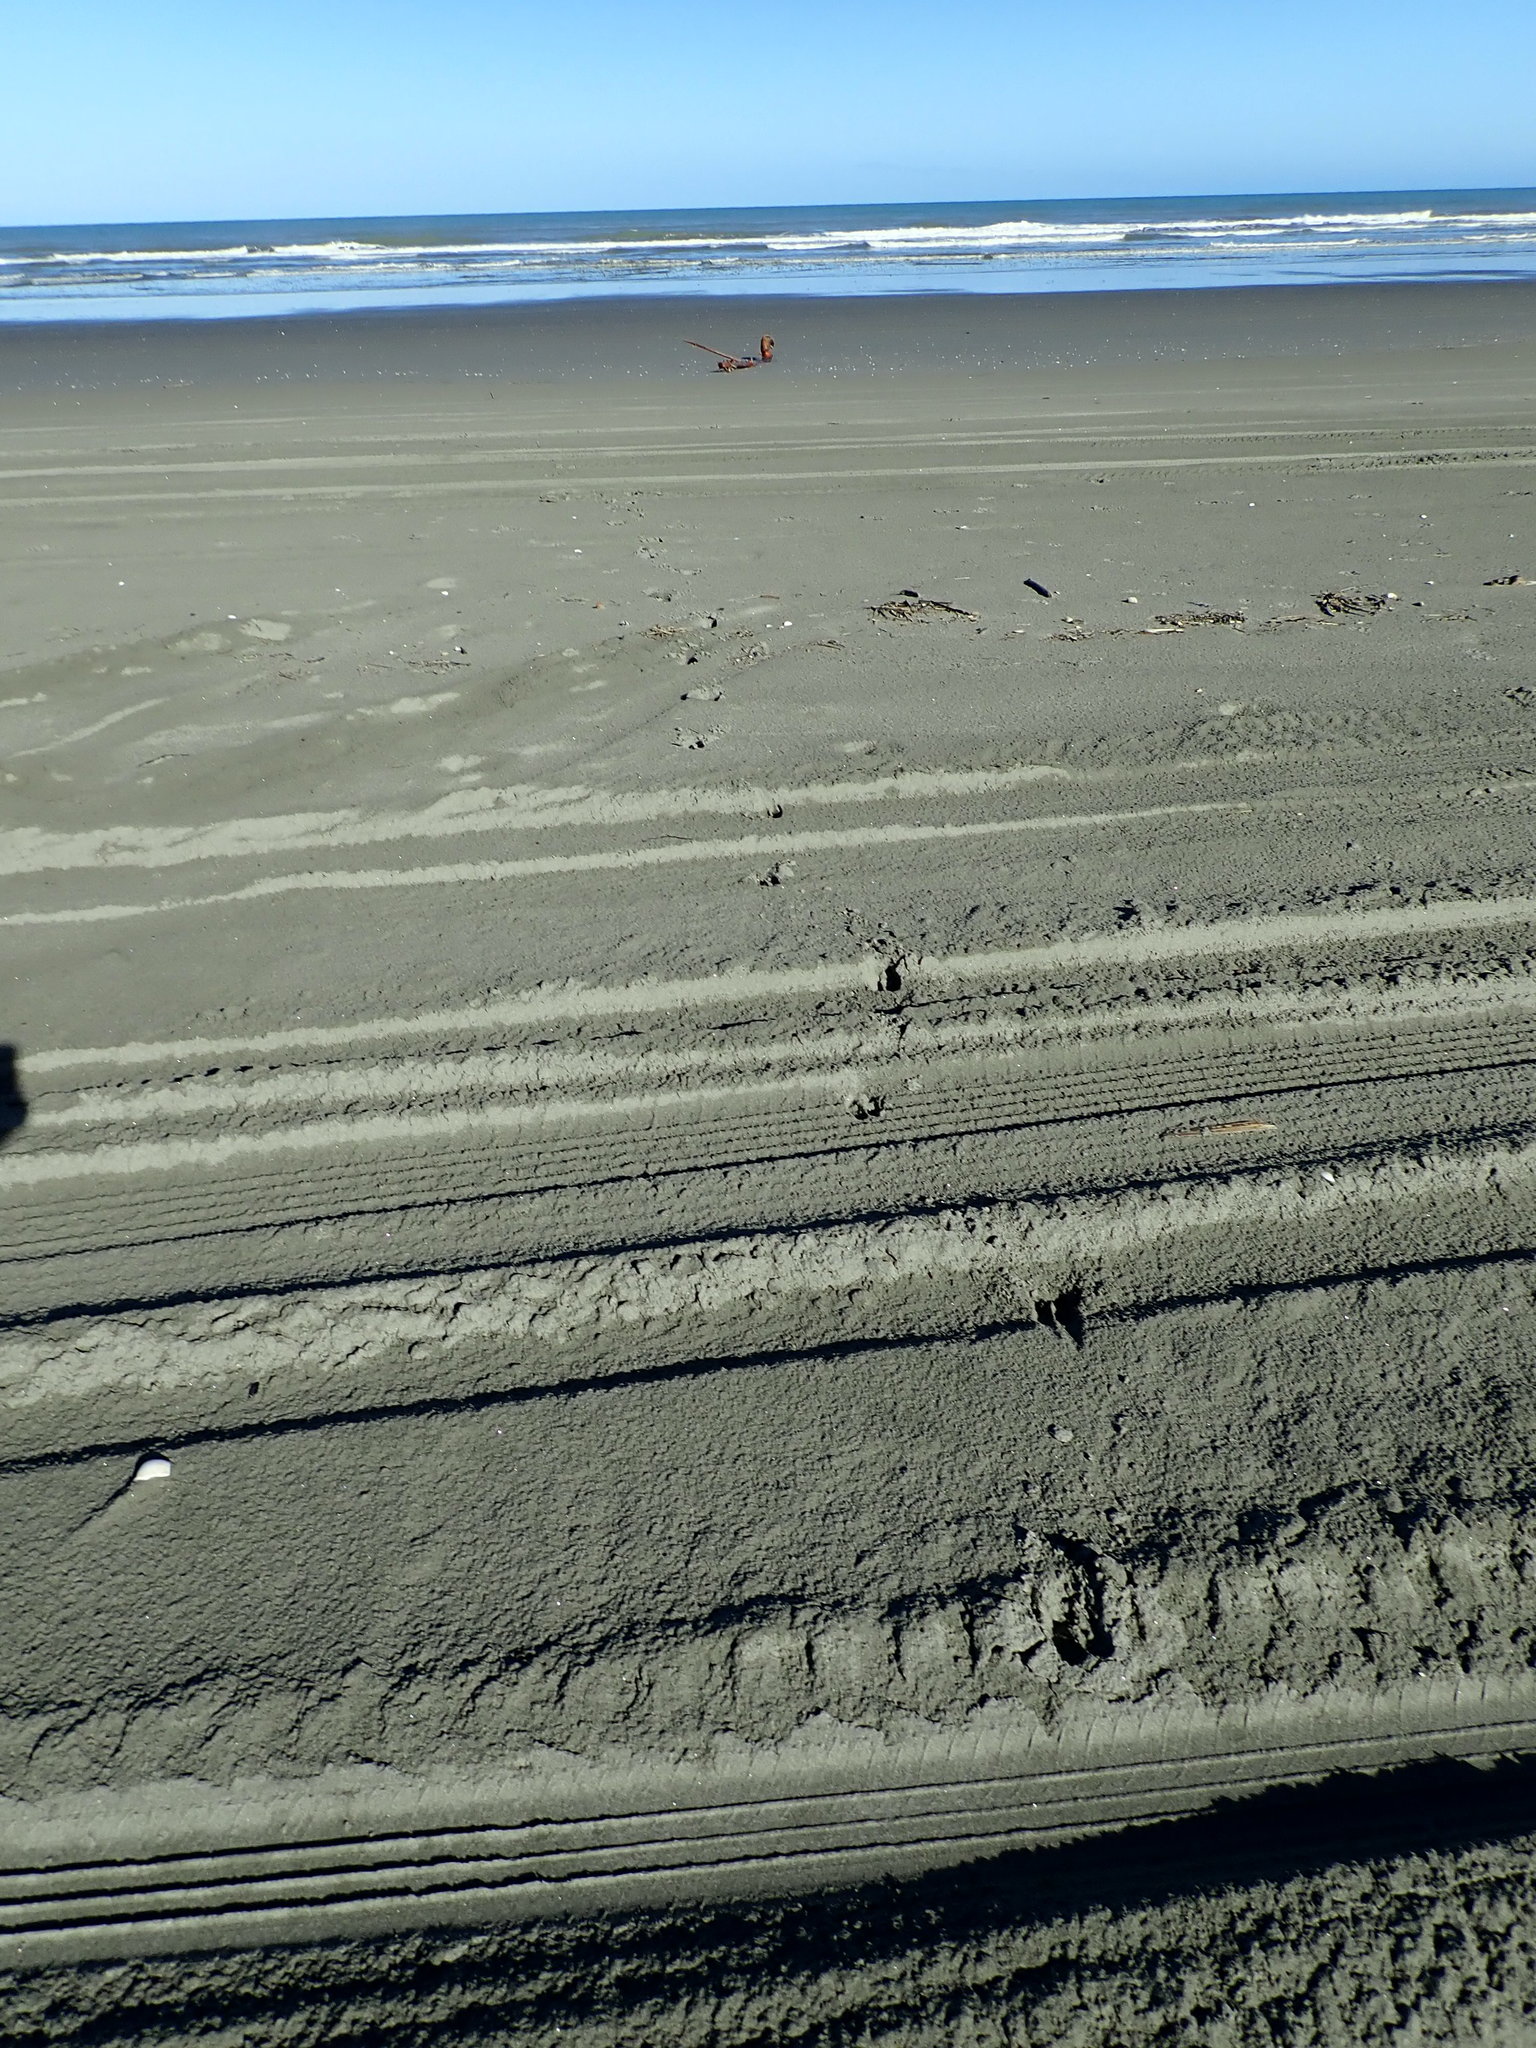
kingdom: Animalia
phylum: Chordata
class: Mammalia
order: Artiodactyla
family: Cervidae
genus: Rusa
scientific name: Rusa unicolor
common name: Sambar
